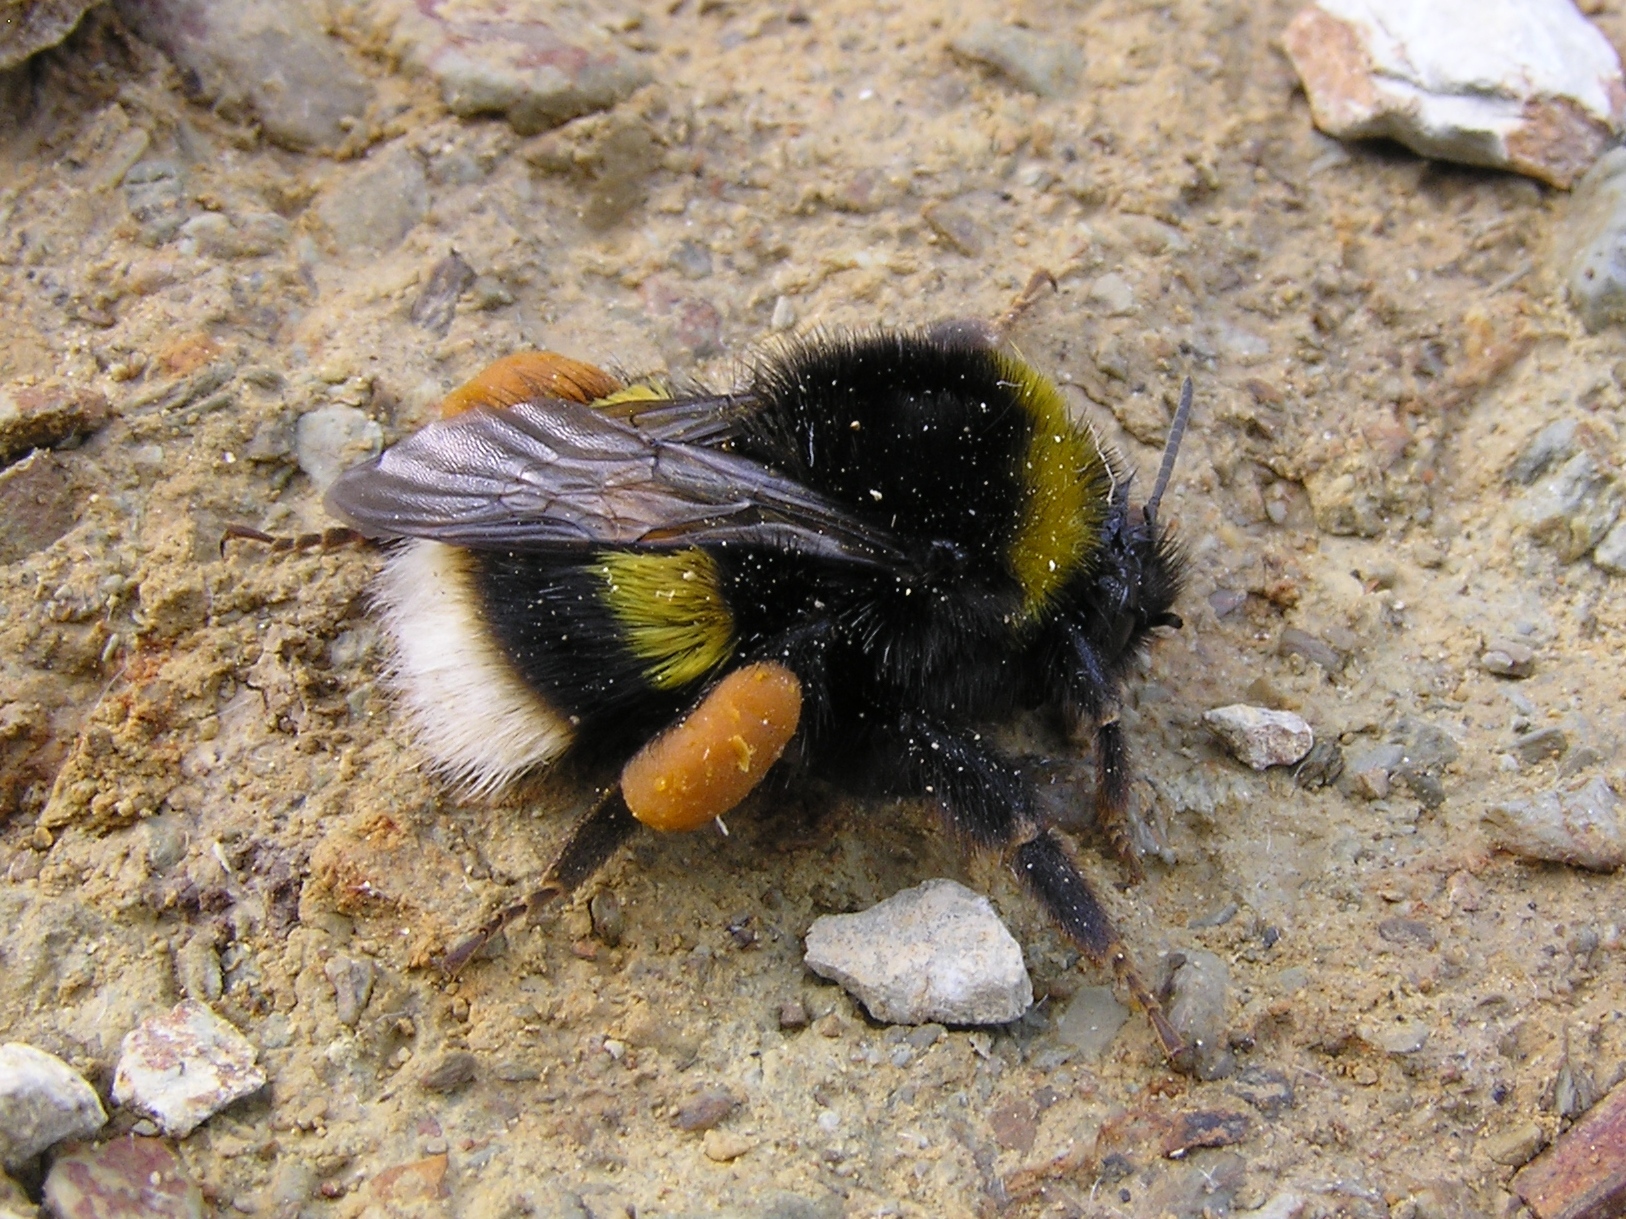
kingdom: Animalia
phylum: Arthropoda
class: Insecta
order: Hymenoptera
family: Apidae
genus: Bombus
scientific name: Bombus terrestris
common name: Buff-tailed bumblebee
